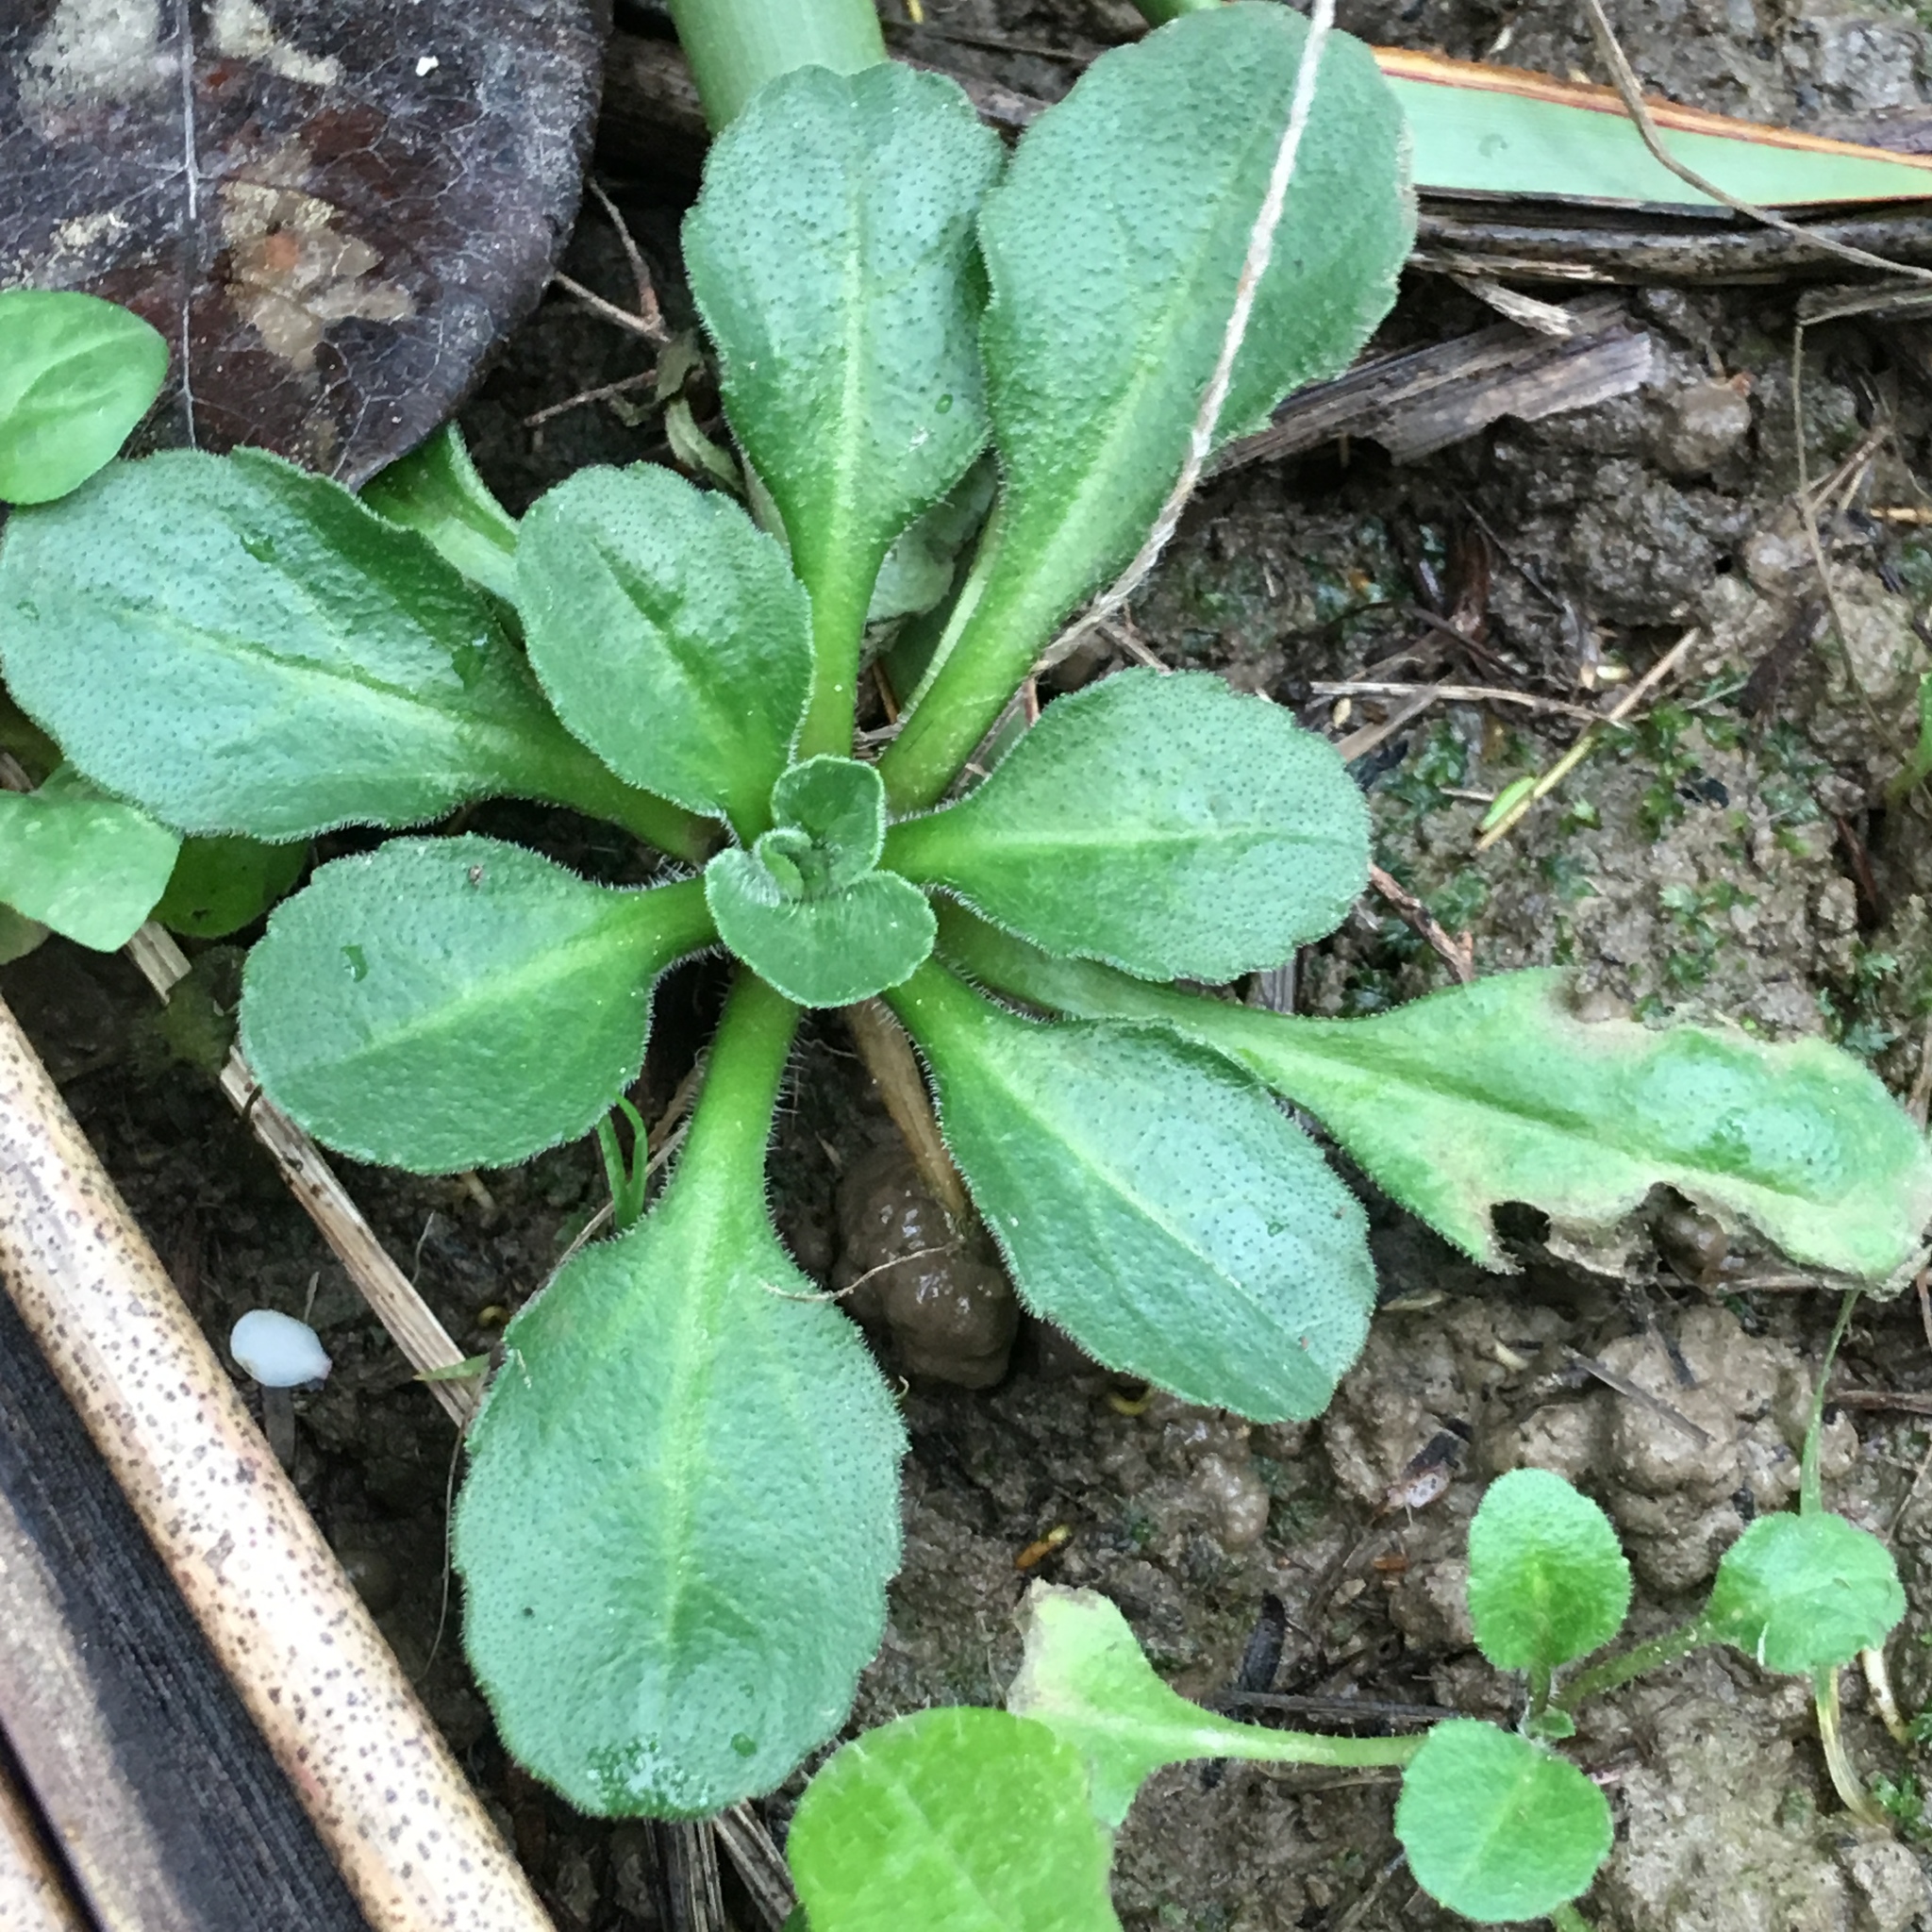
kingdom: Plantae
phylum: Tracheophyta
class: Magnoliopsida
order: Asterales
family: Asteraceae
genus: Bellis
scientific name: Bellis perennis
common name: Lawndaisy
